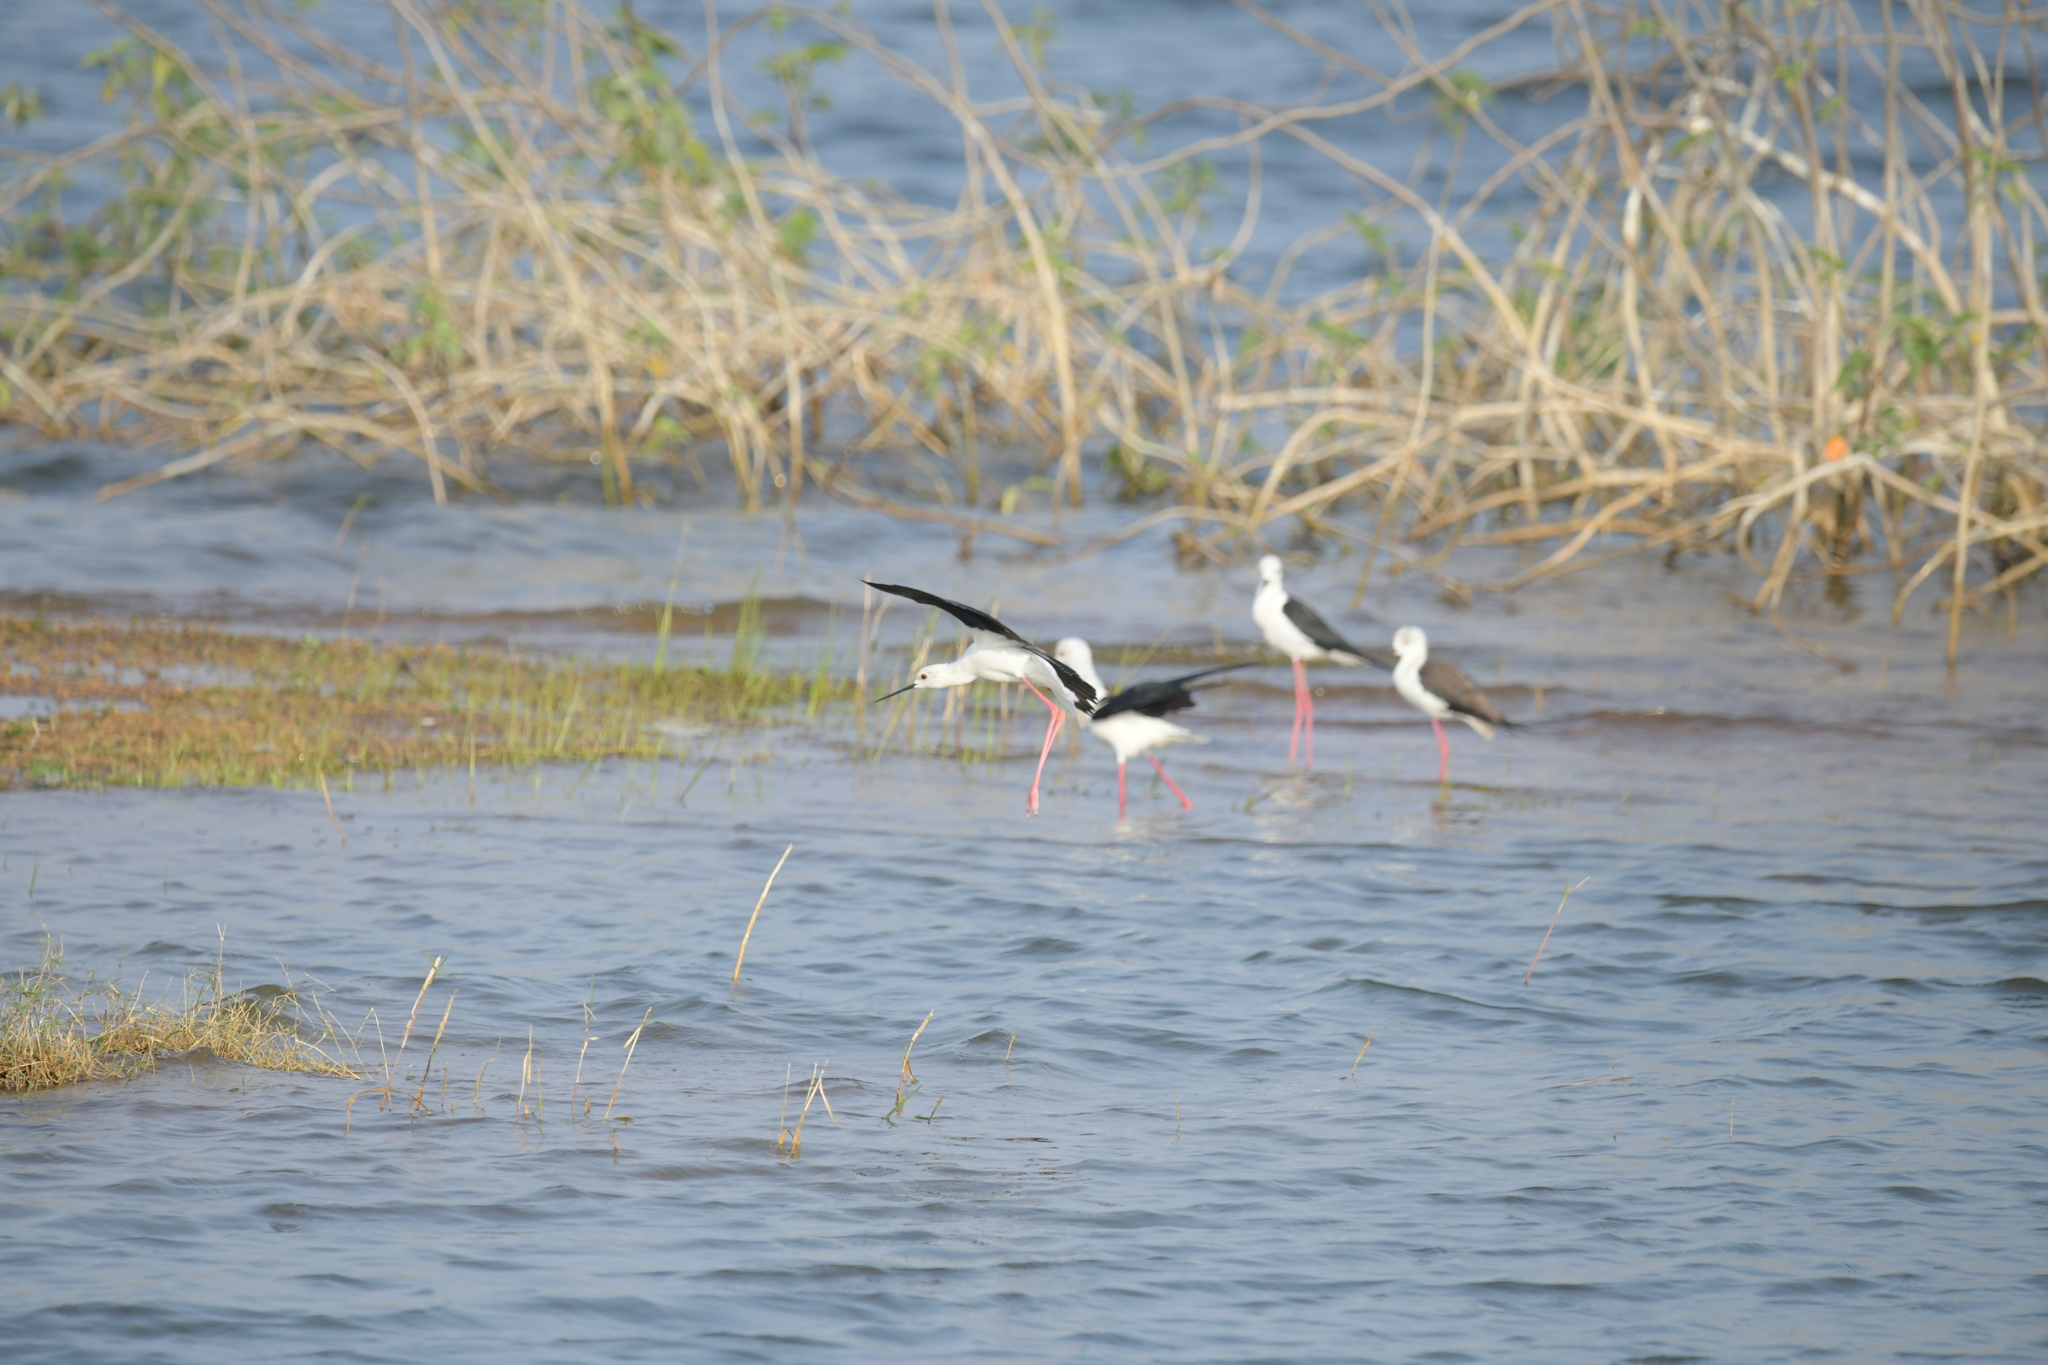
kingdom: Animalia
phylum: Chordata
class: Aves
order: Charadriiformes
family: Recurvirostridae
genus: Himantopus
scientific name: Himantopus himantopus
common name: Black-winged stilt
